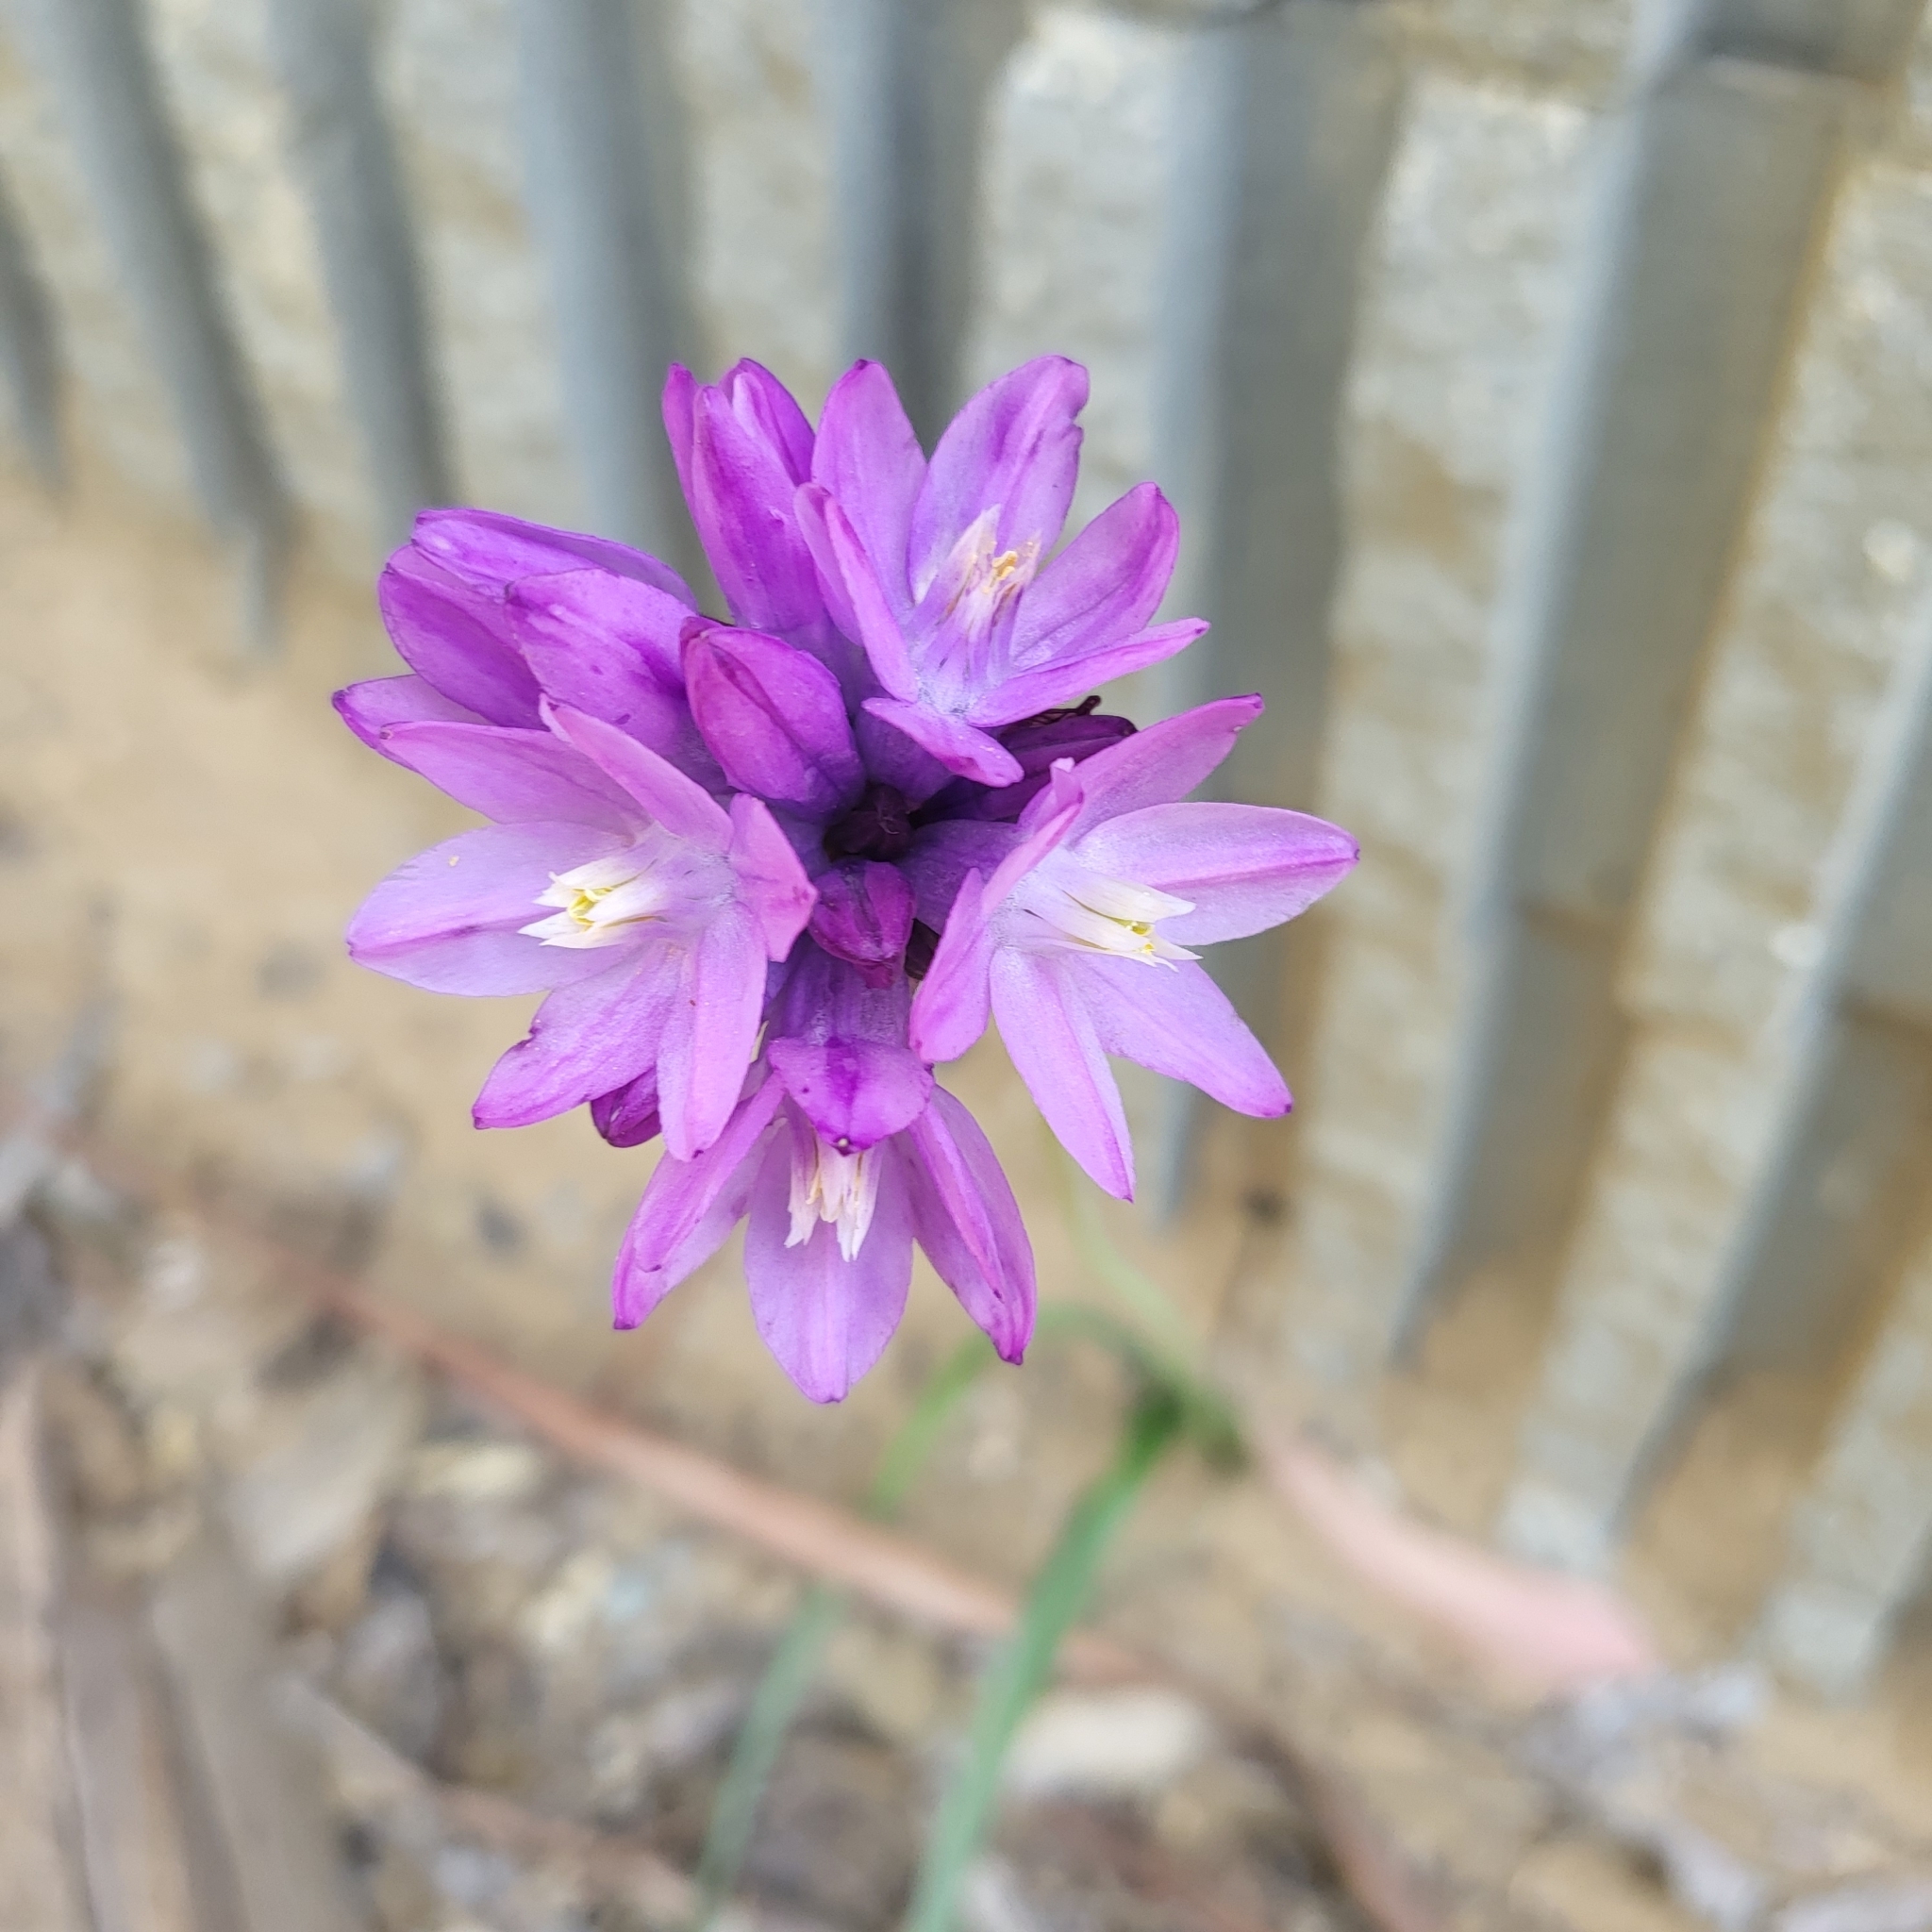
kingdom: Plantae
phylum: Tracheophyta
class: Liliopsida
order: Asparagales
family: Asparagaceae
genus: Dipterostemon
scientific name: Dipterostemon capitatus
